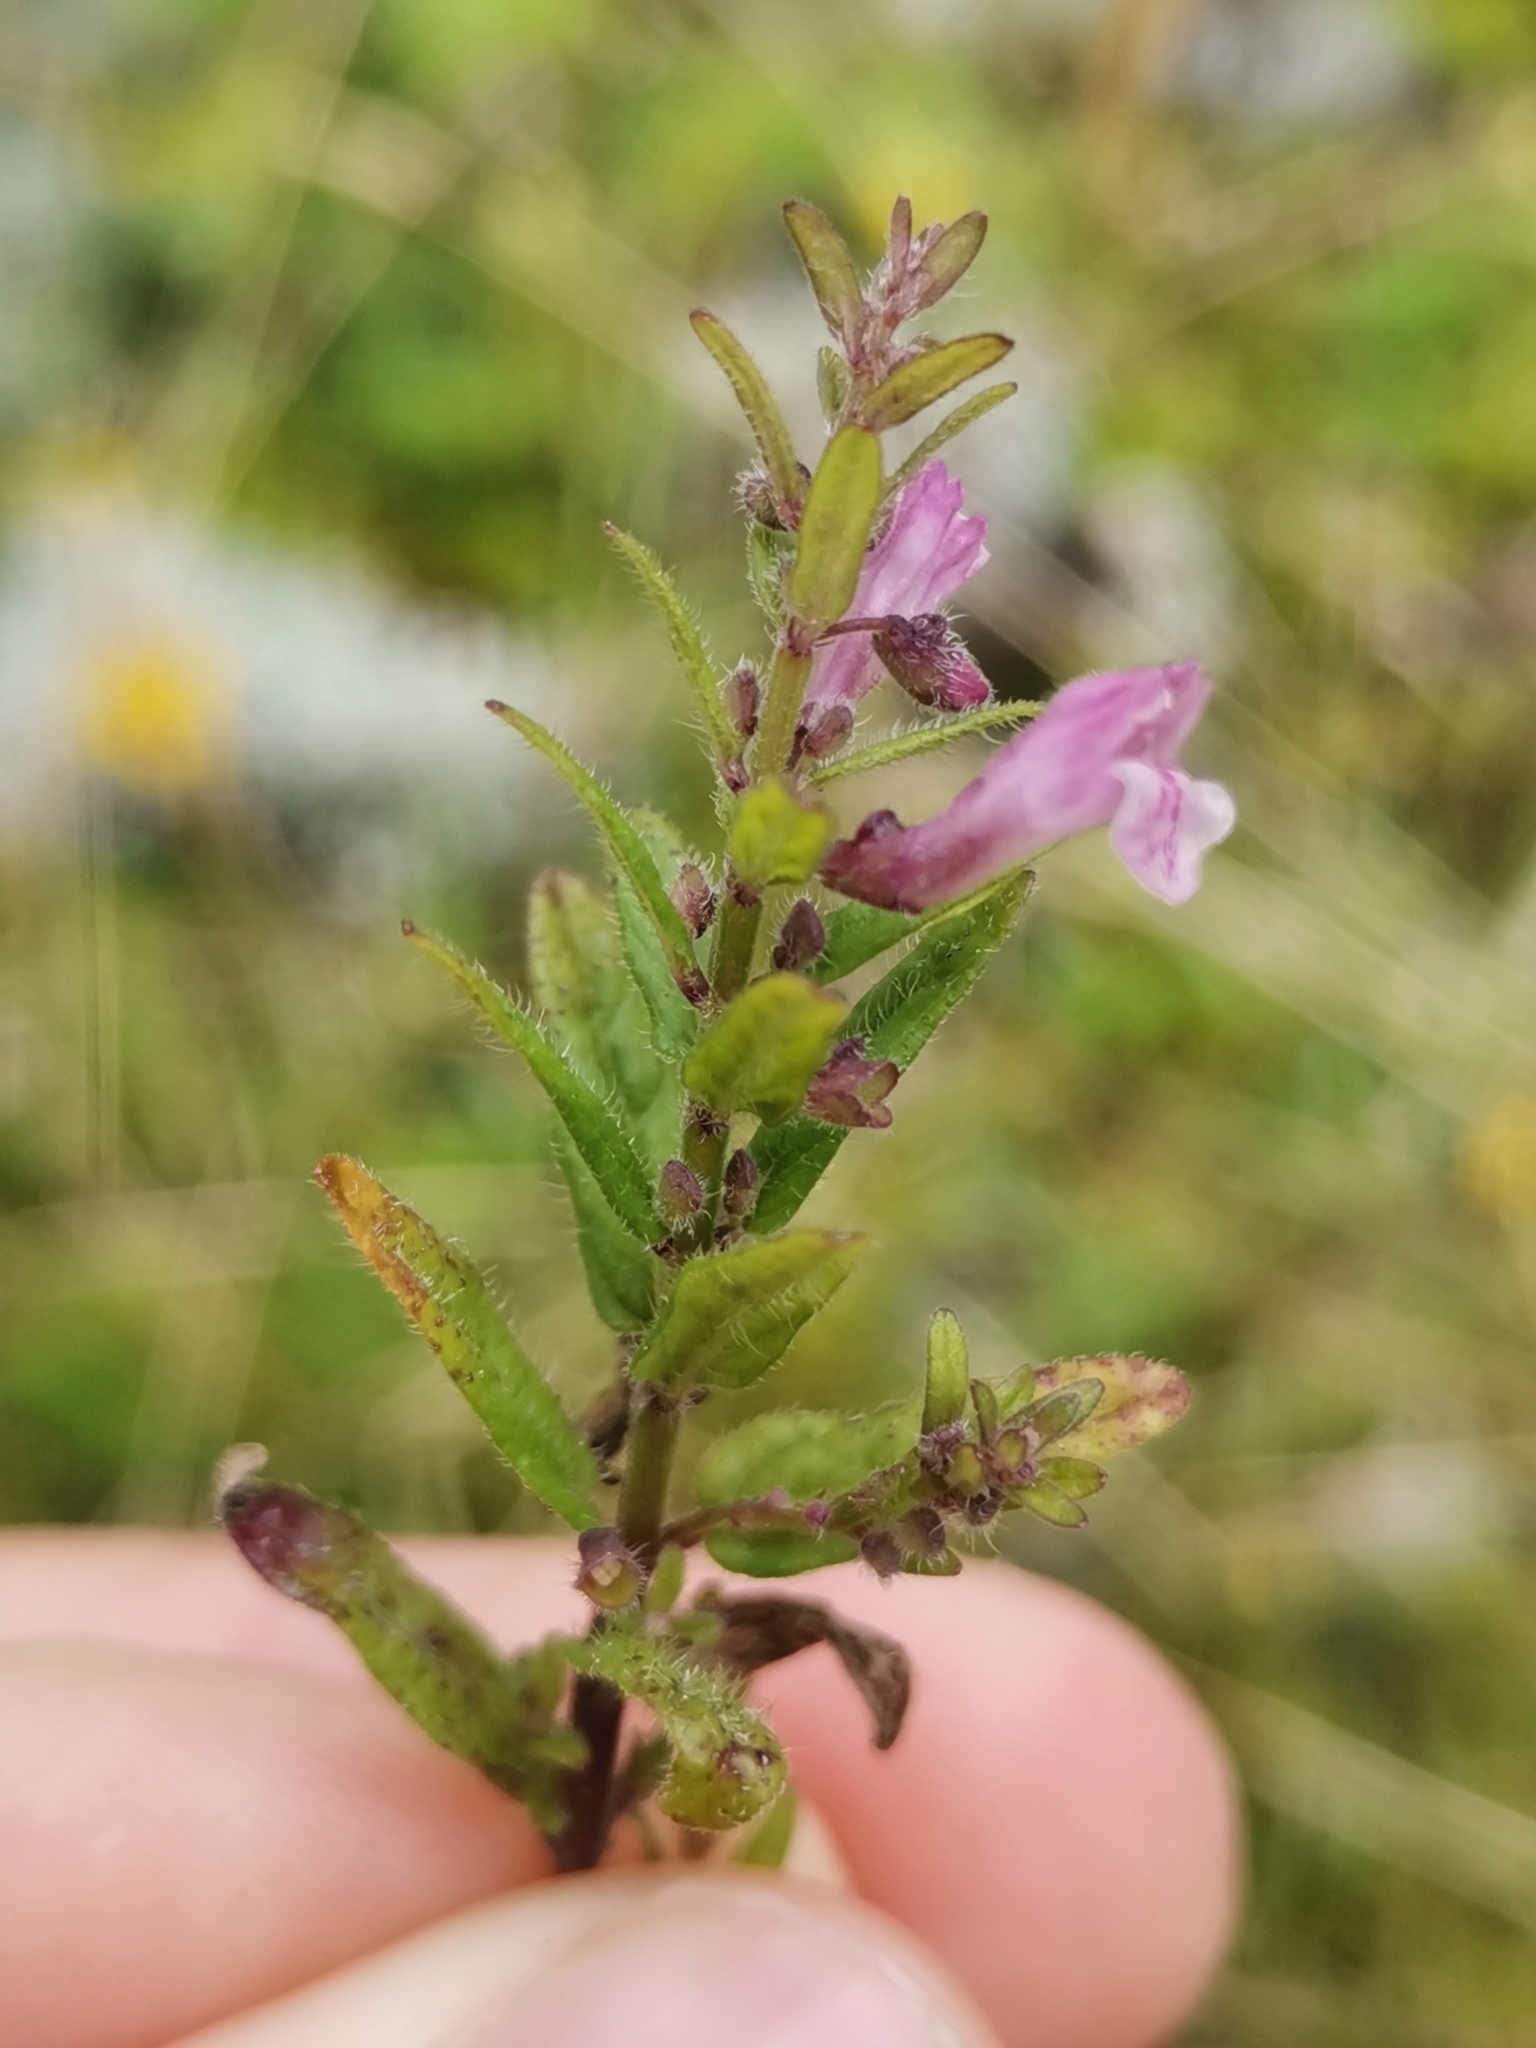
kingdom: Plantae
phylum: Tracheophyta
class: Magnoliopsida
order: Lamiales
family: Lamiaceae
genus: Scutellaria
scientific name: Scutellaria minor
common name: Lesser skullcap
